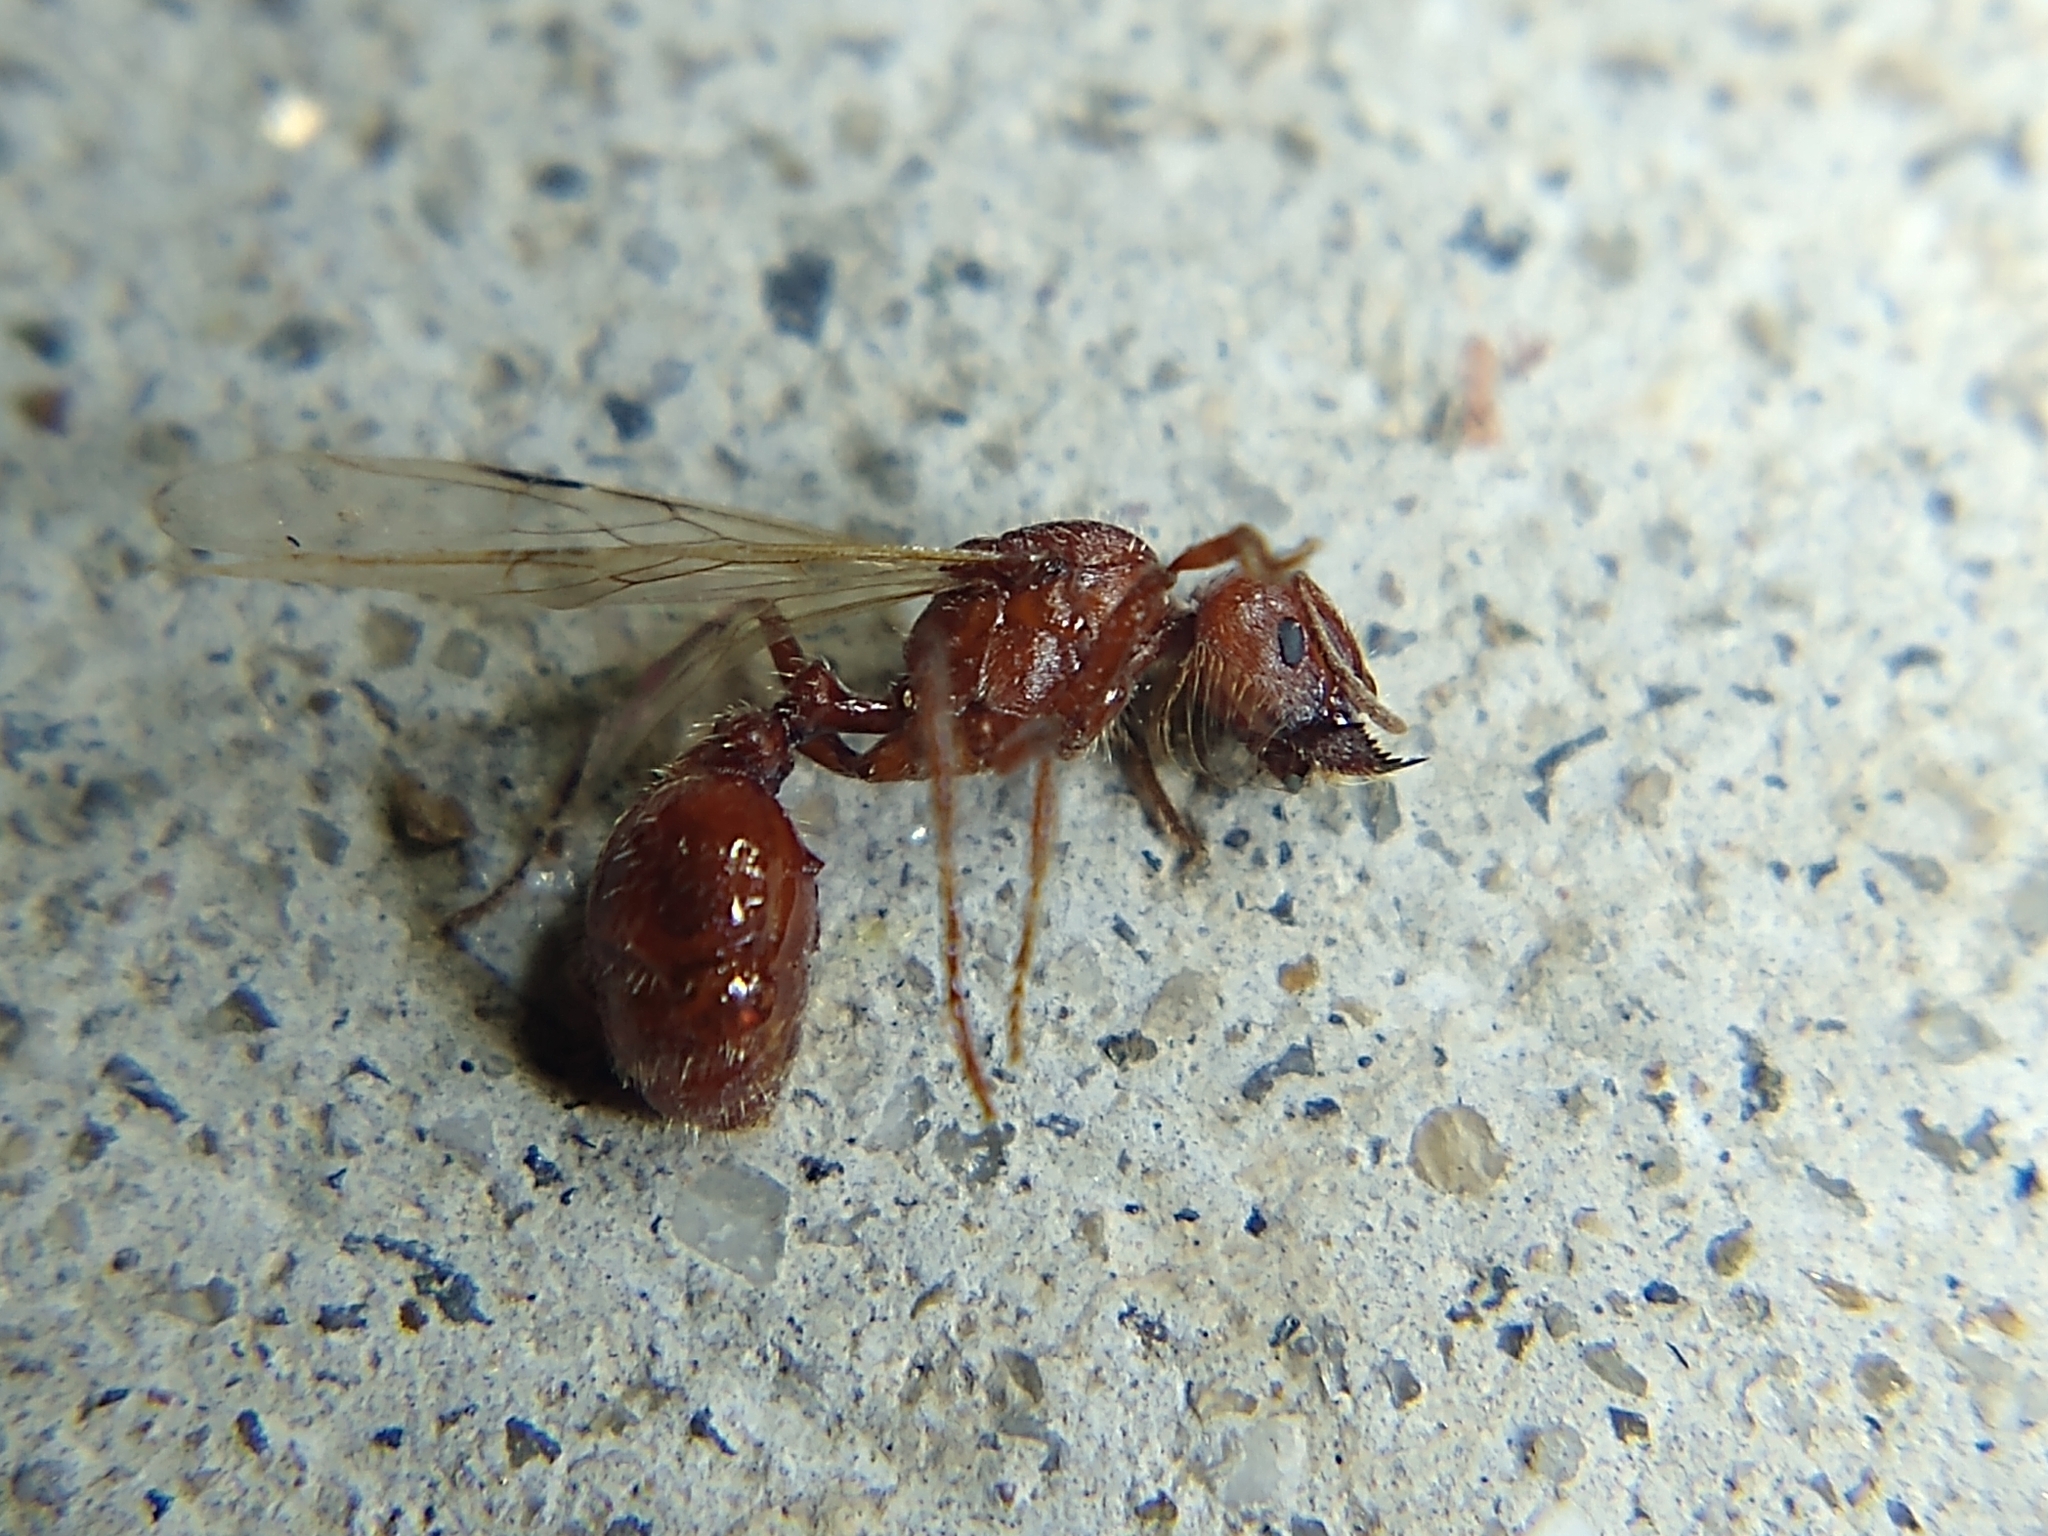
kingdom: Animalia
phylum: Arthropoda
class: Insecta
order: Hymenoptera
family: Formicidae
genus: Pogonomyrmex
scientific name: Pogonomyrmex
